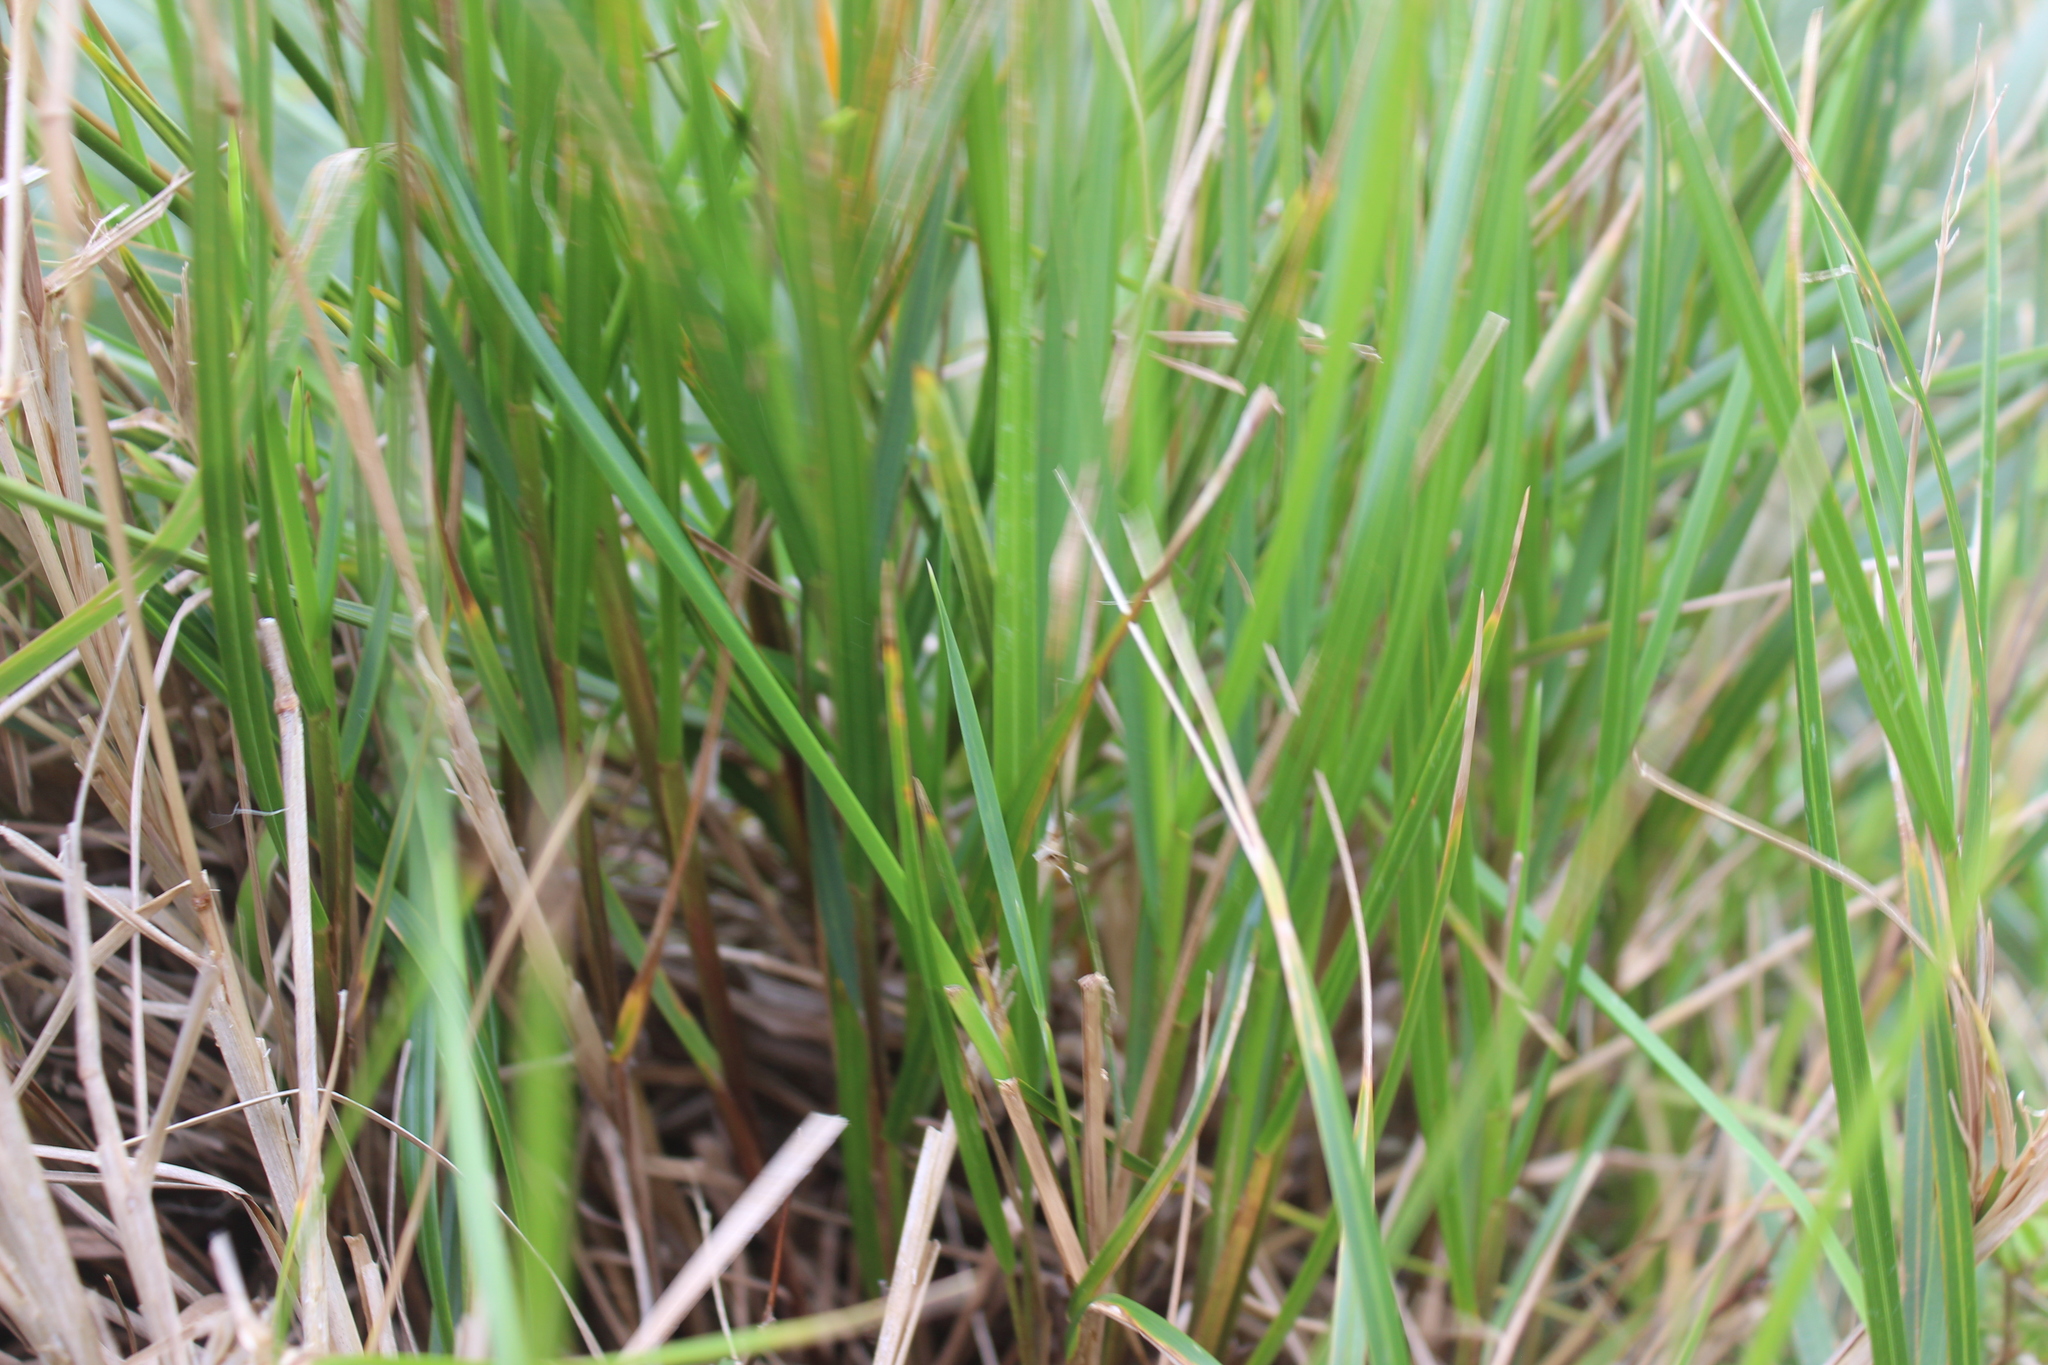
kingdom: Plantae
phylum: Tracheophyta
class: Liliopsida
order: Poales
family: Poaceae
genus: Poa
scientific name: Poa anceps
